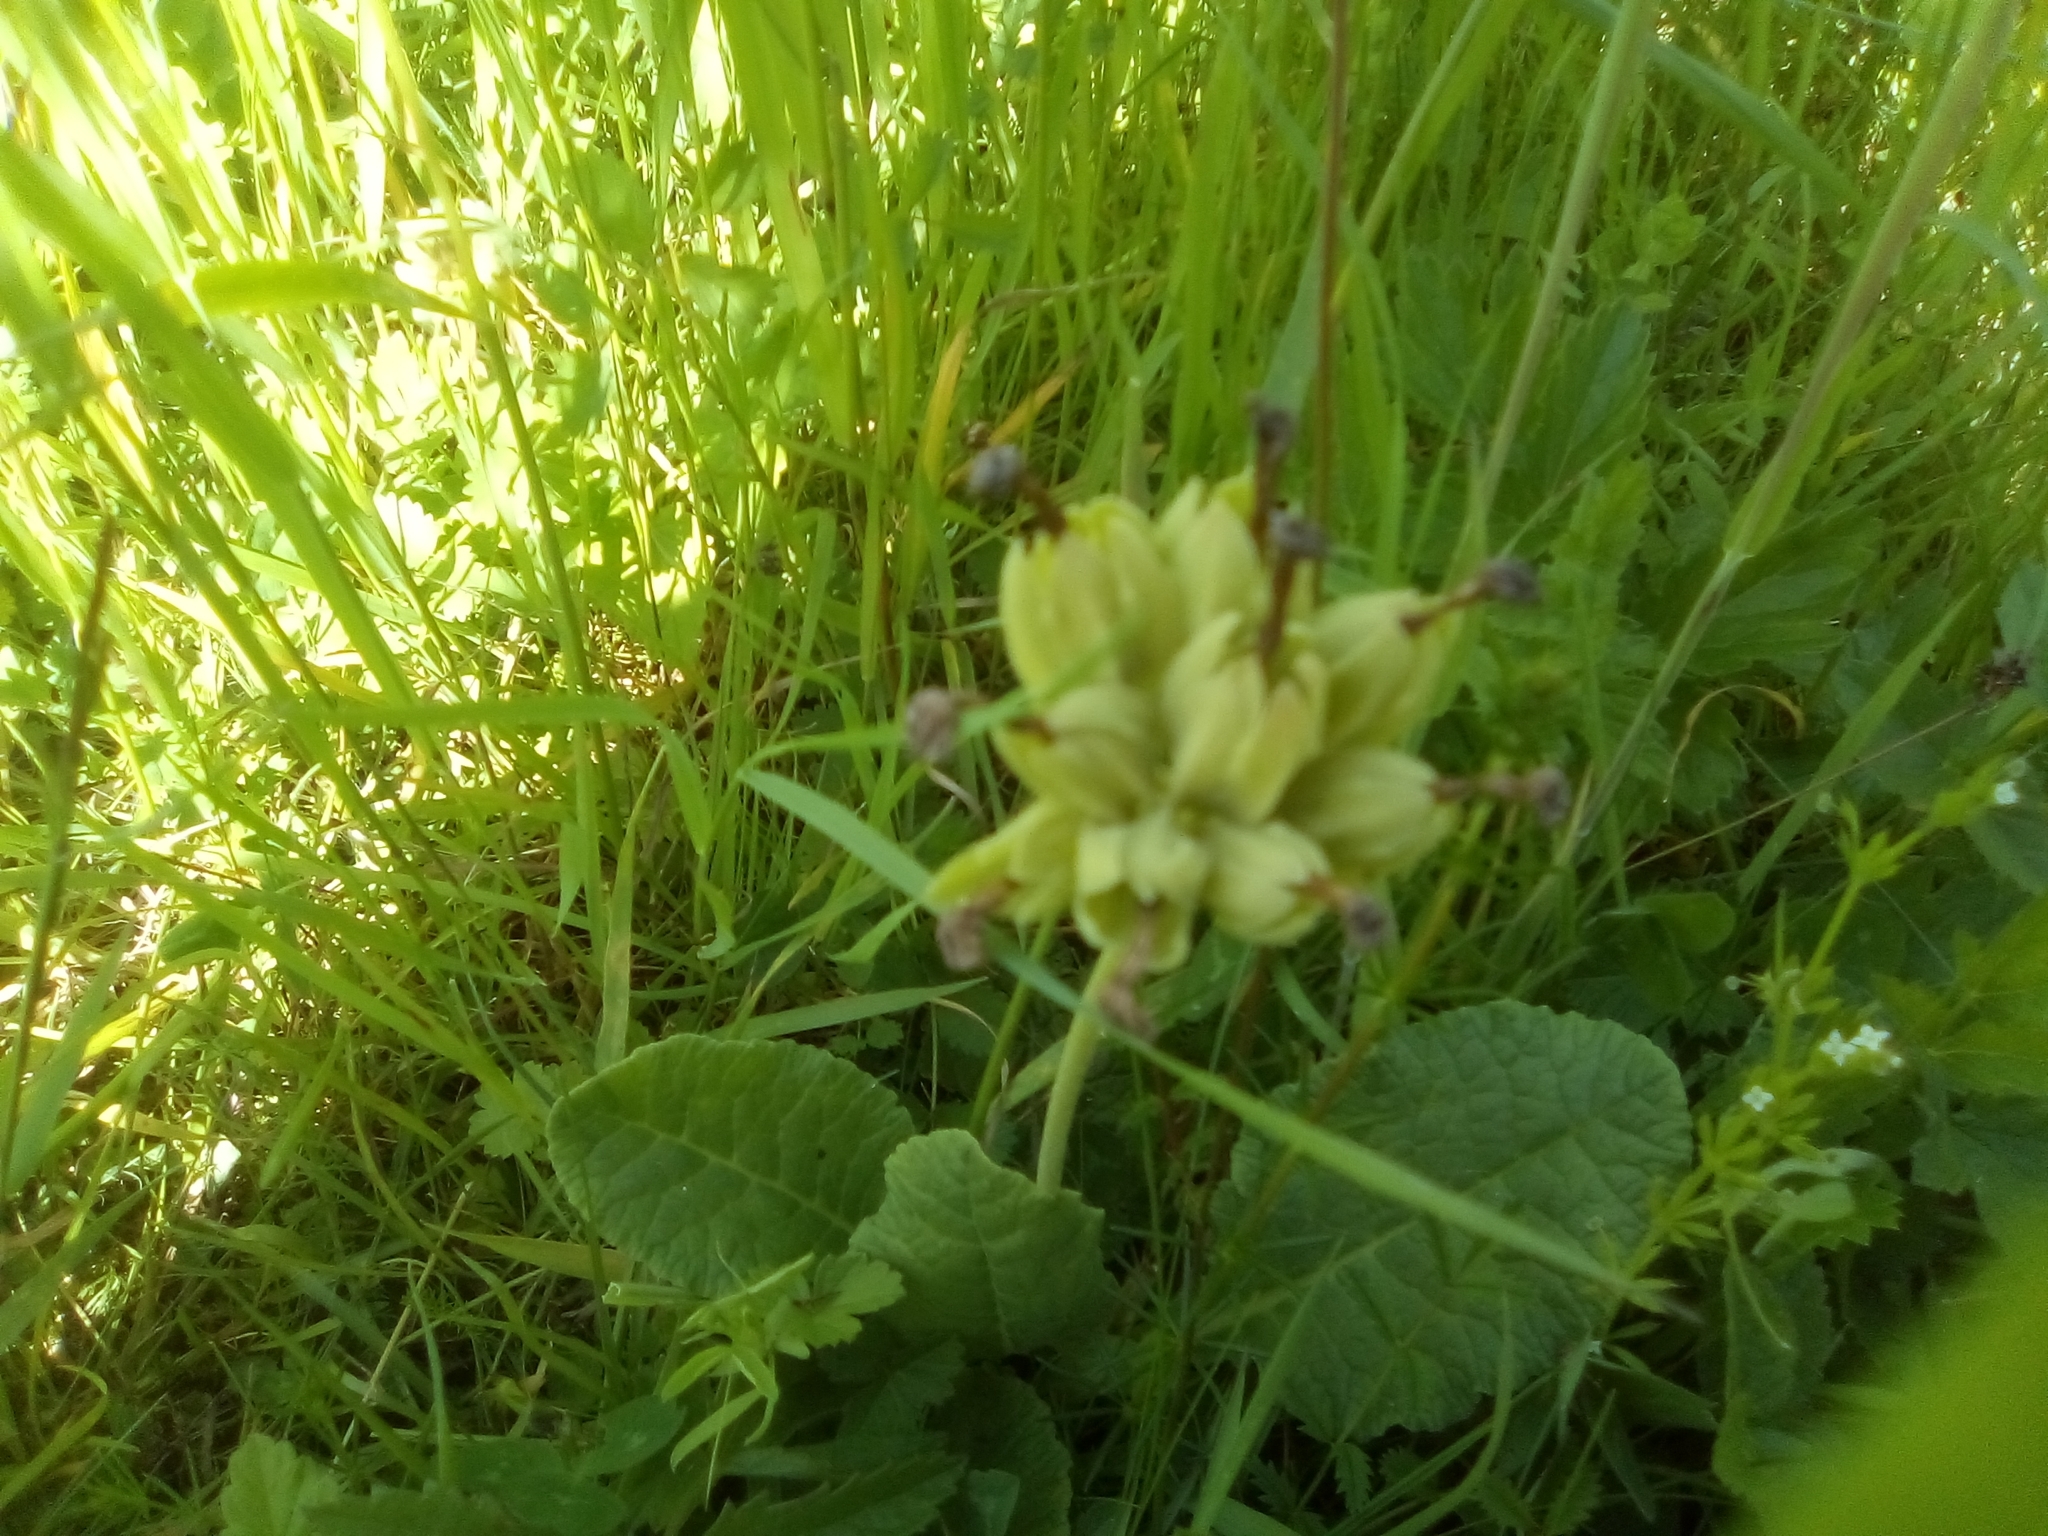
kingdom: Plantae
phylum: Tracheophyta
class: Magnoliopsida
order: Ericales
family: Primulaceae
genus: Primula
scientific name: Primula veris
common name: Cowslip
